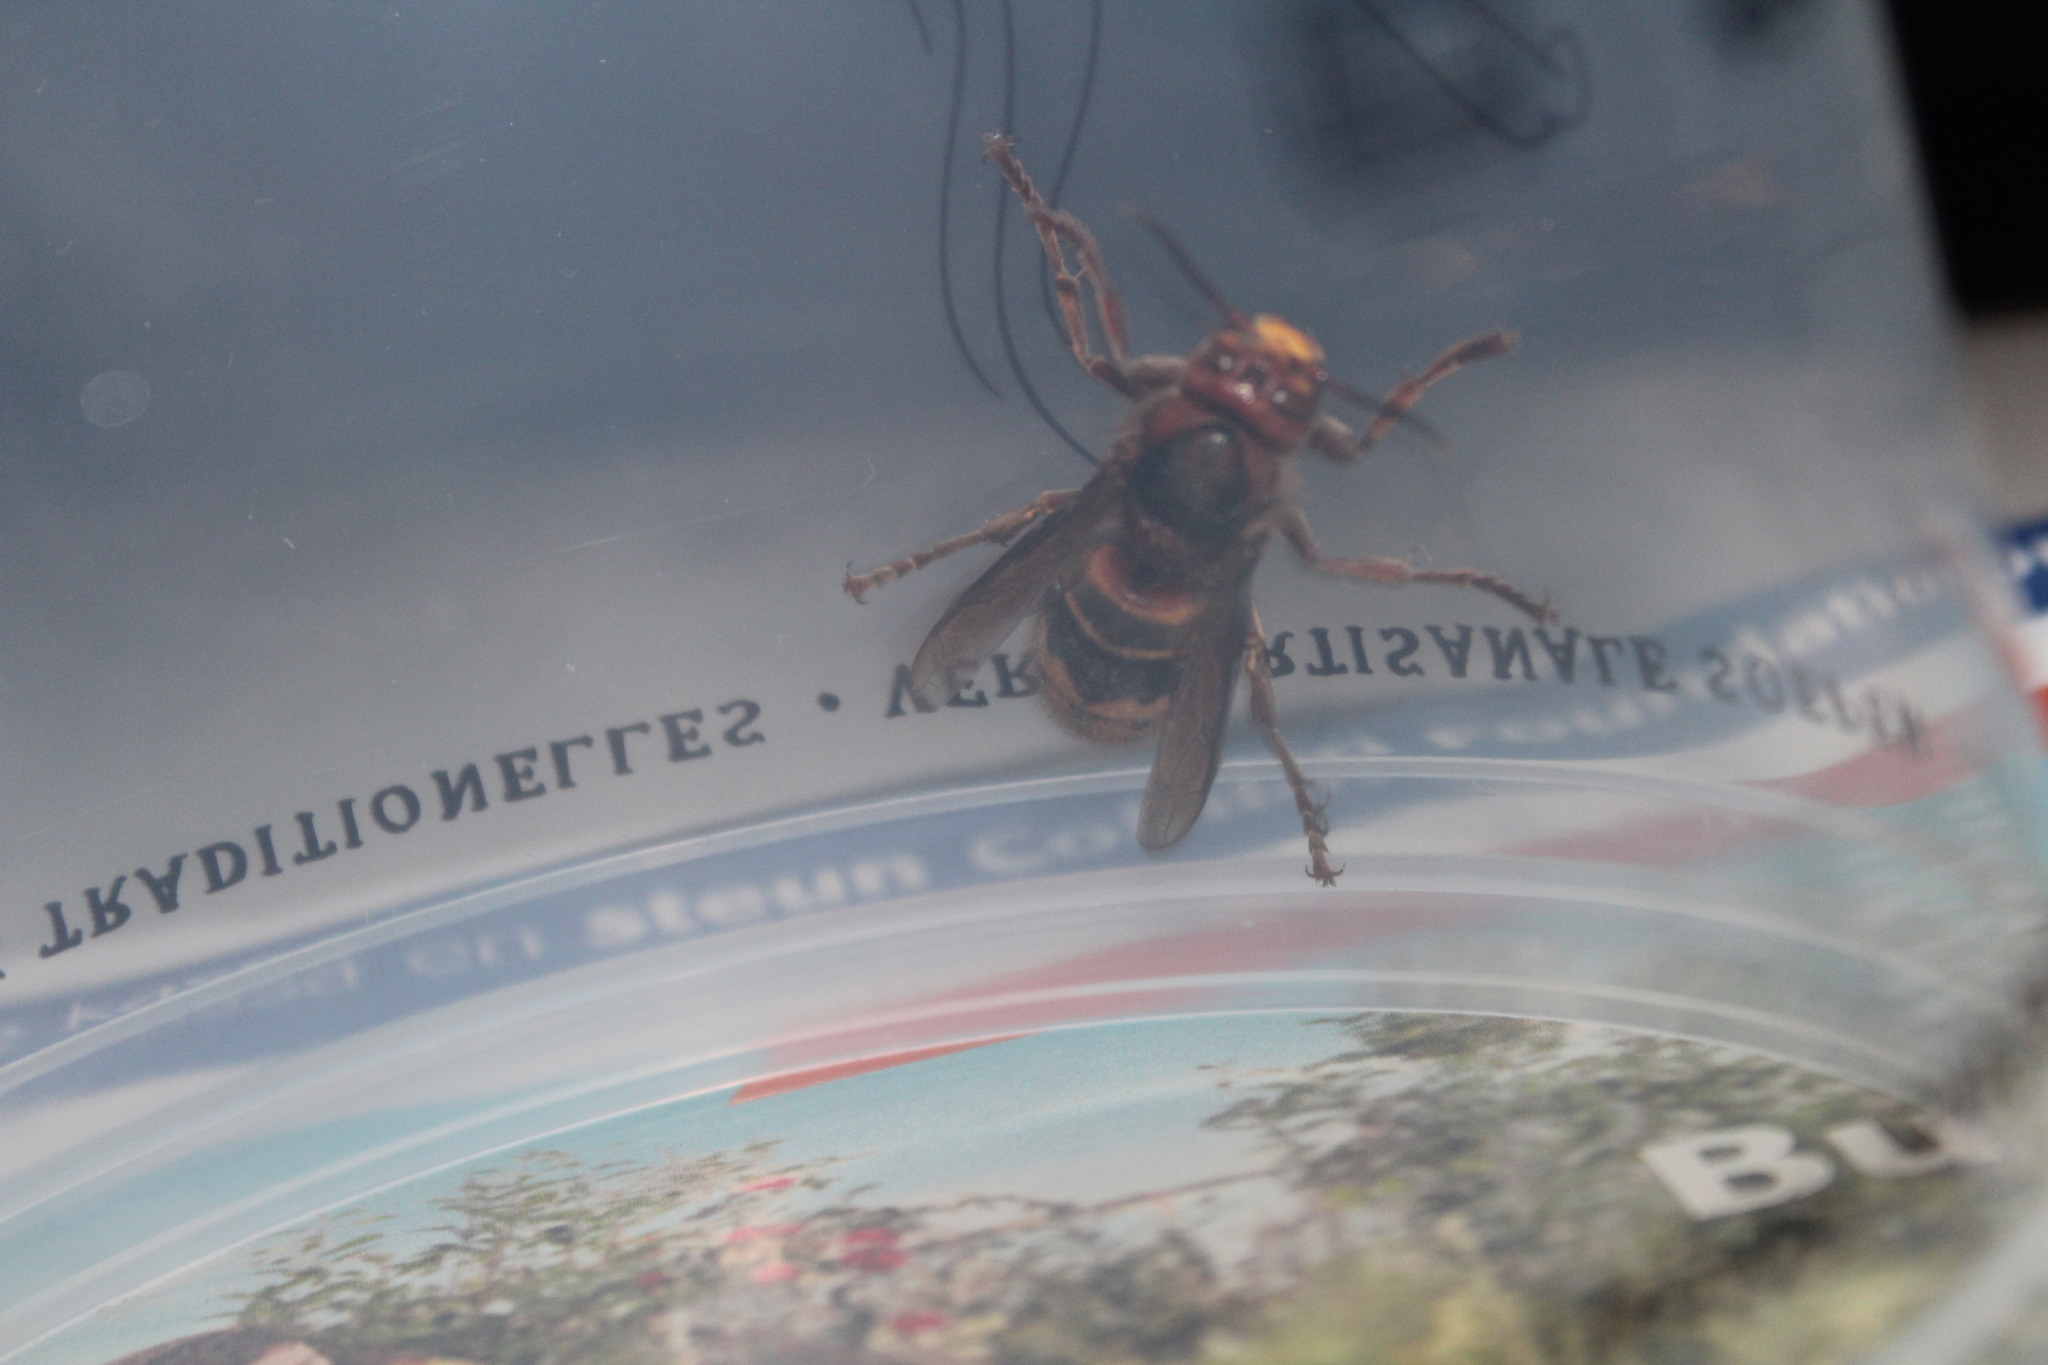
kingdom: Animalia
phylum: Arthropoda
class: Insecta
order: Hymenoptera
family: Vespidae
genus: Vespa
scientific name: Vespa crabro
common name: Hornet
